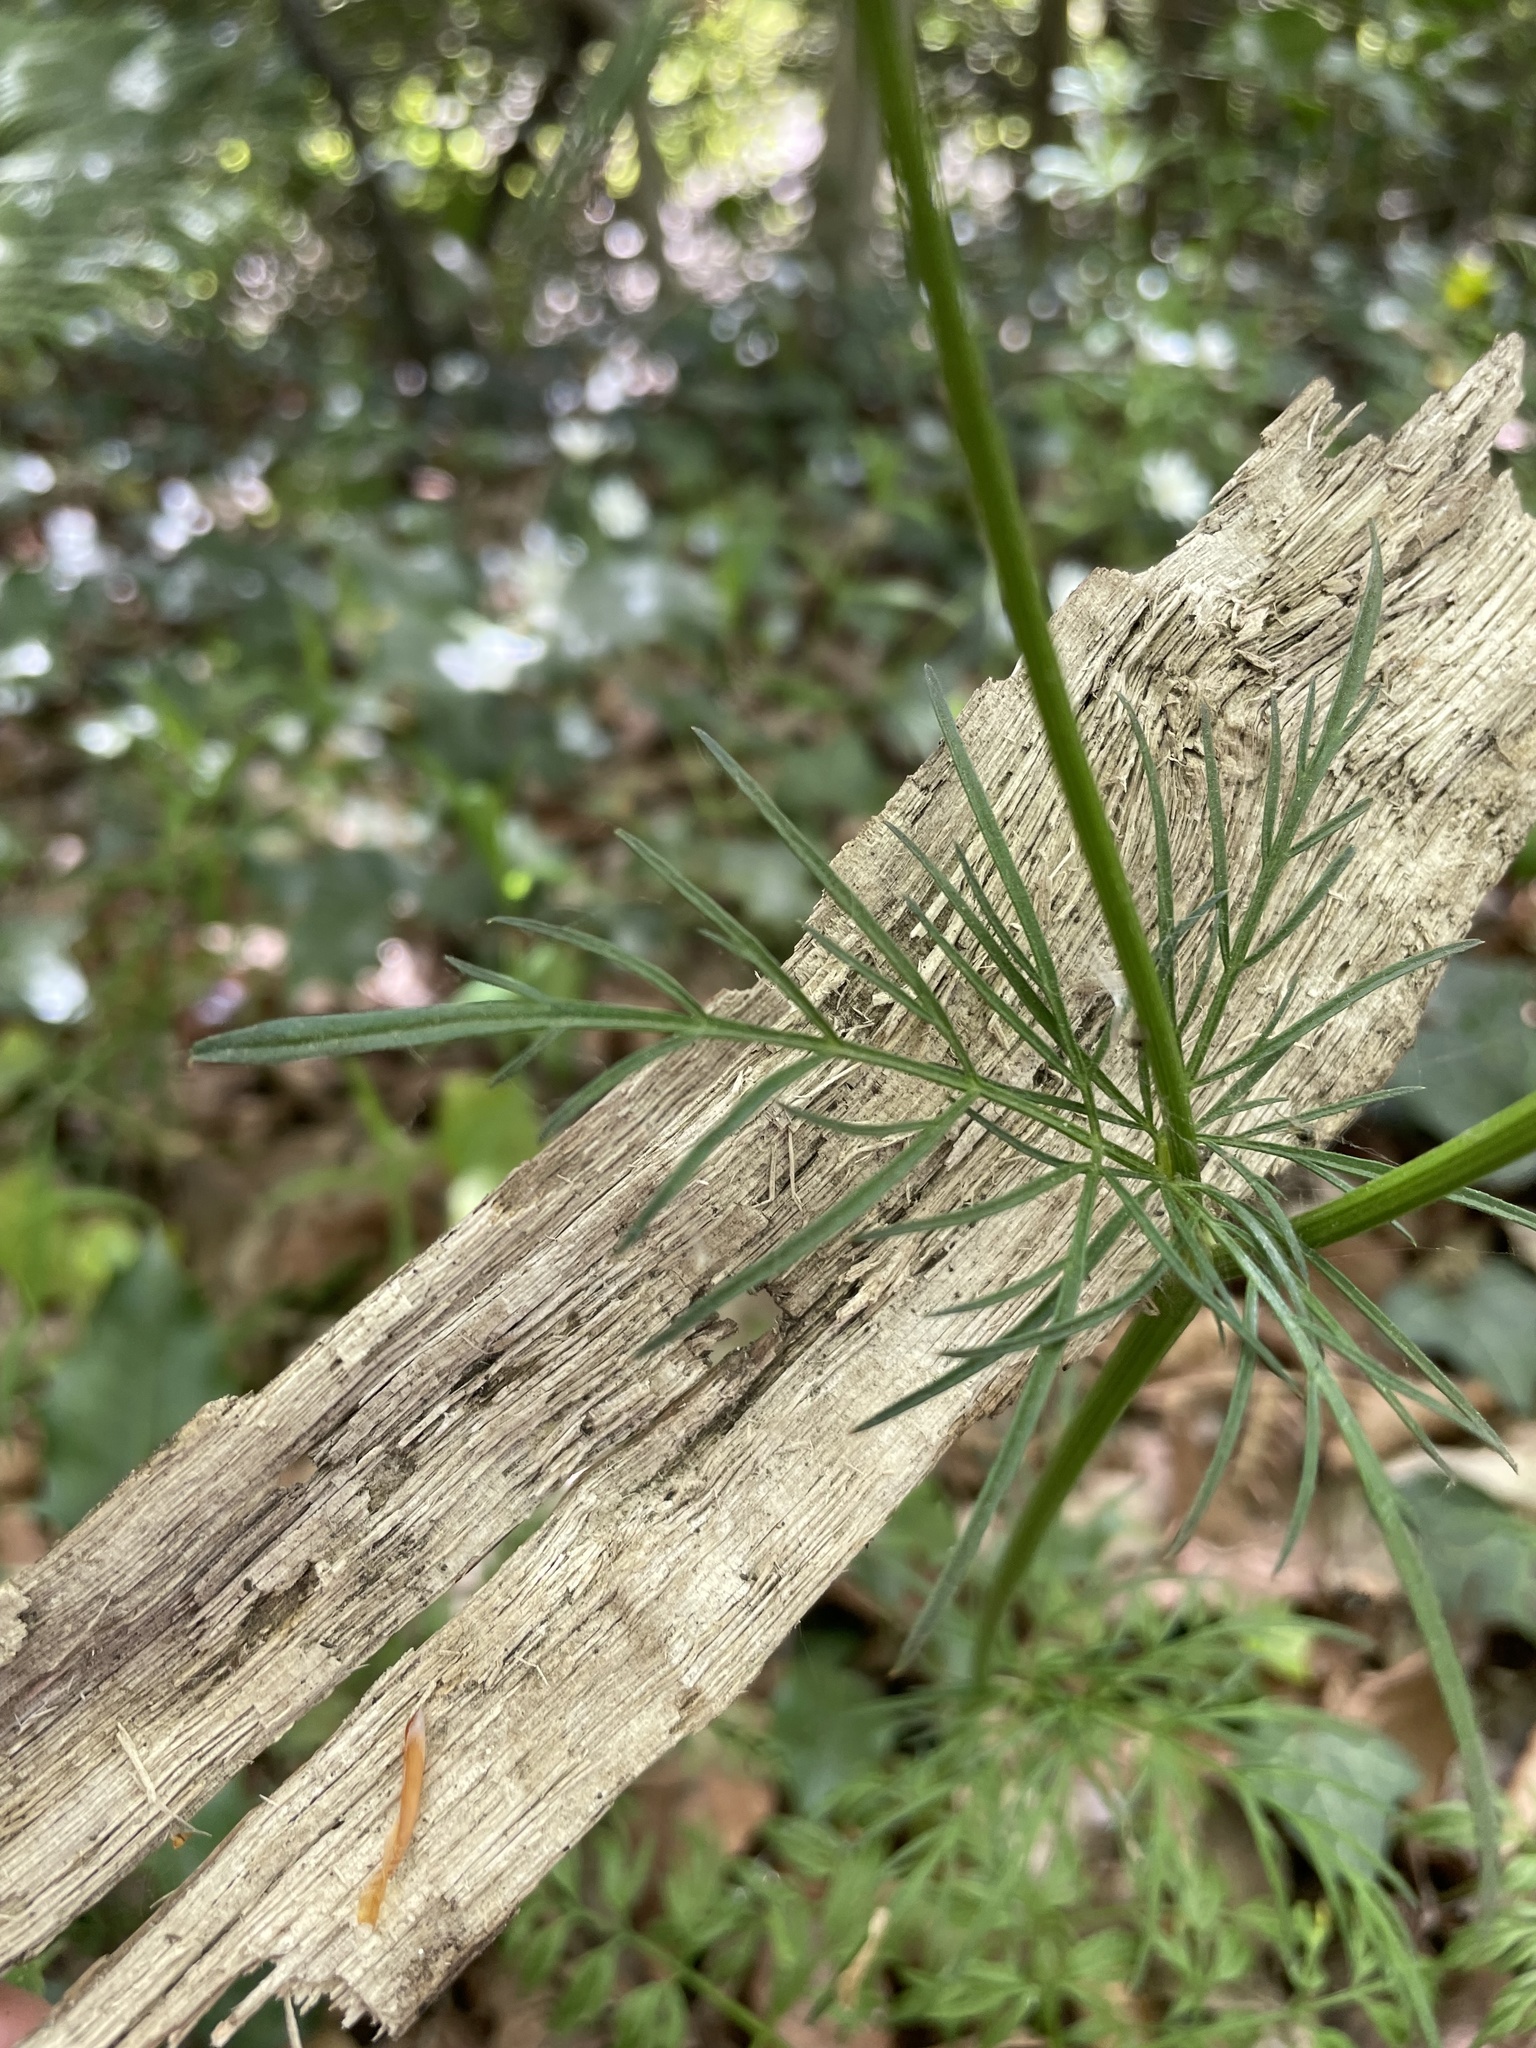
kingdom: Plantae
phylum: Tracheophyta
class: Magnoliopsida
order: Apiales
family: Apiaceae
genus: Conopodium
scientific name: Conopodium majus
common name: Pignut
